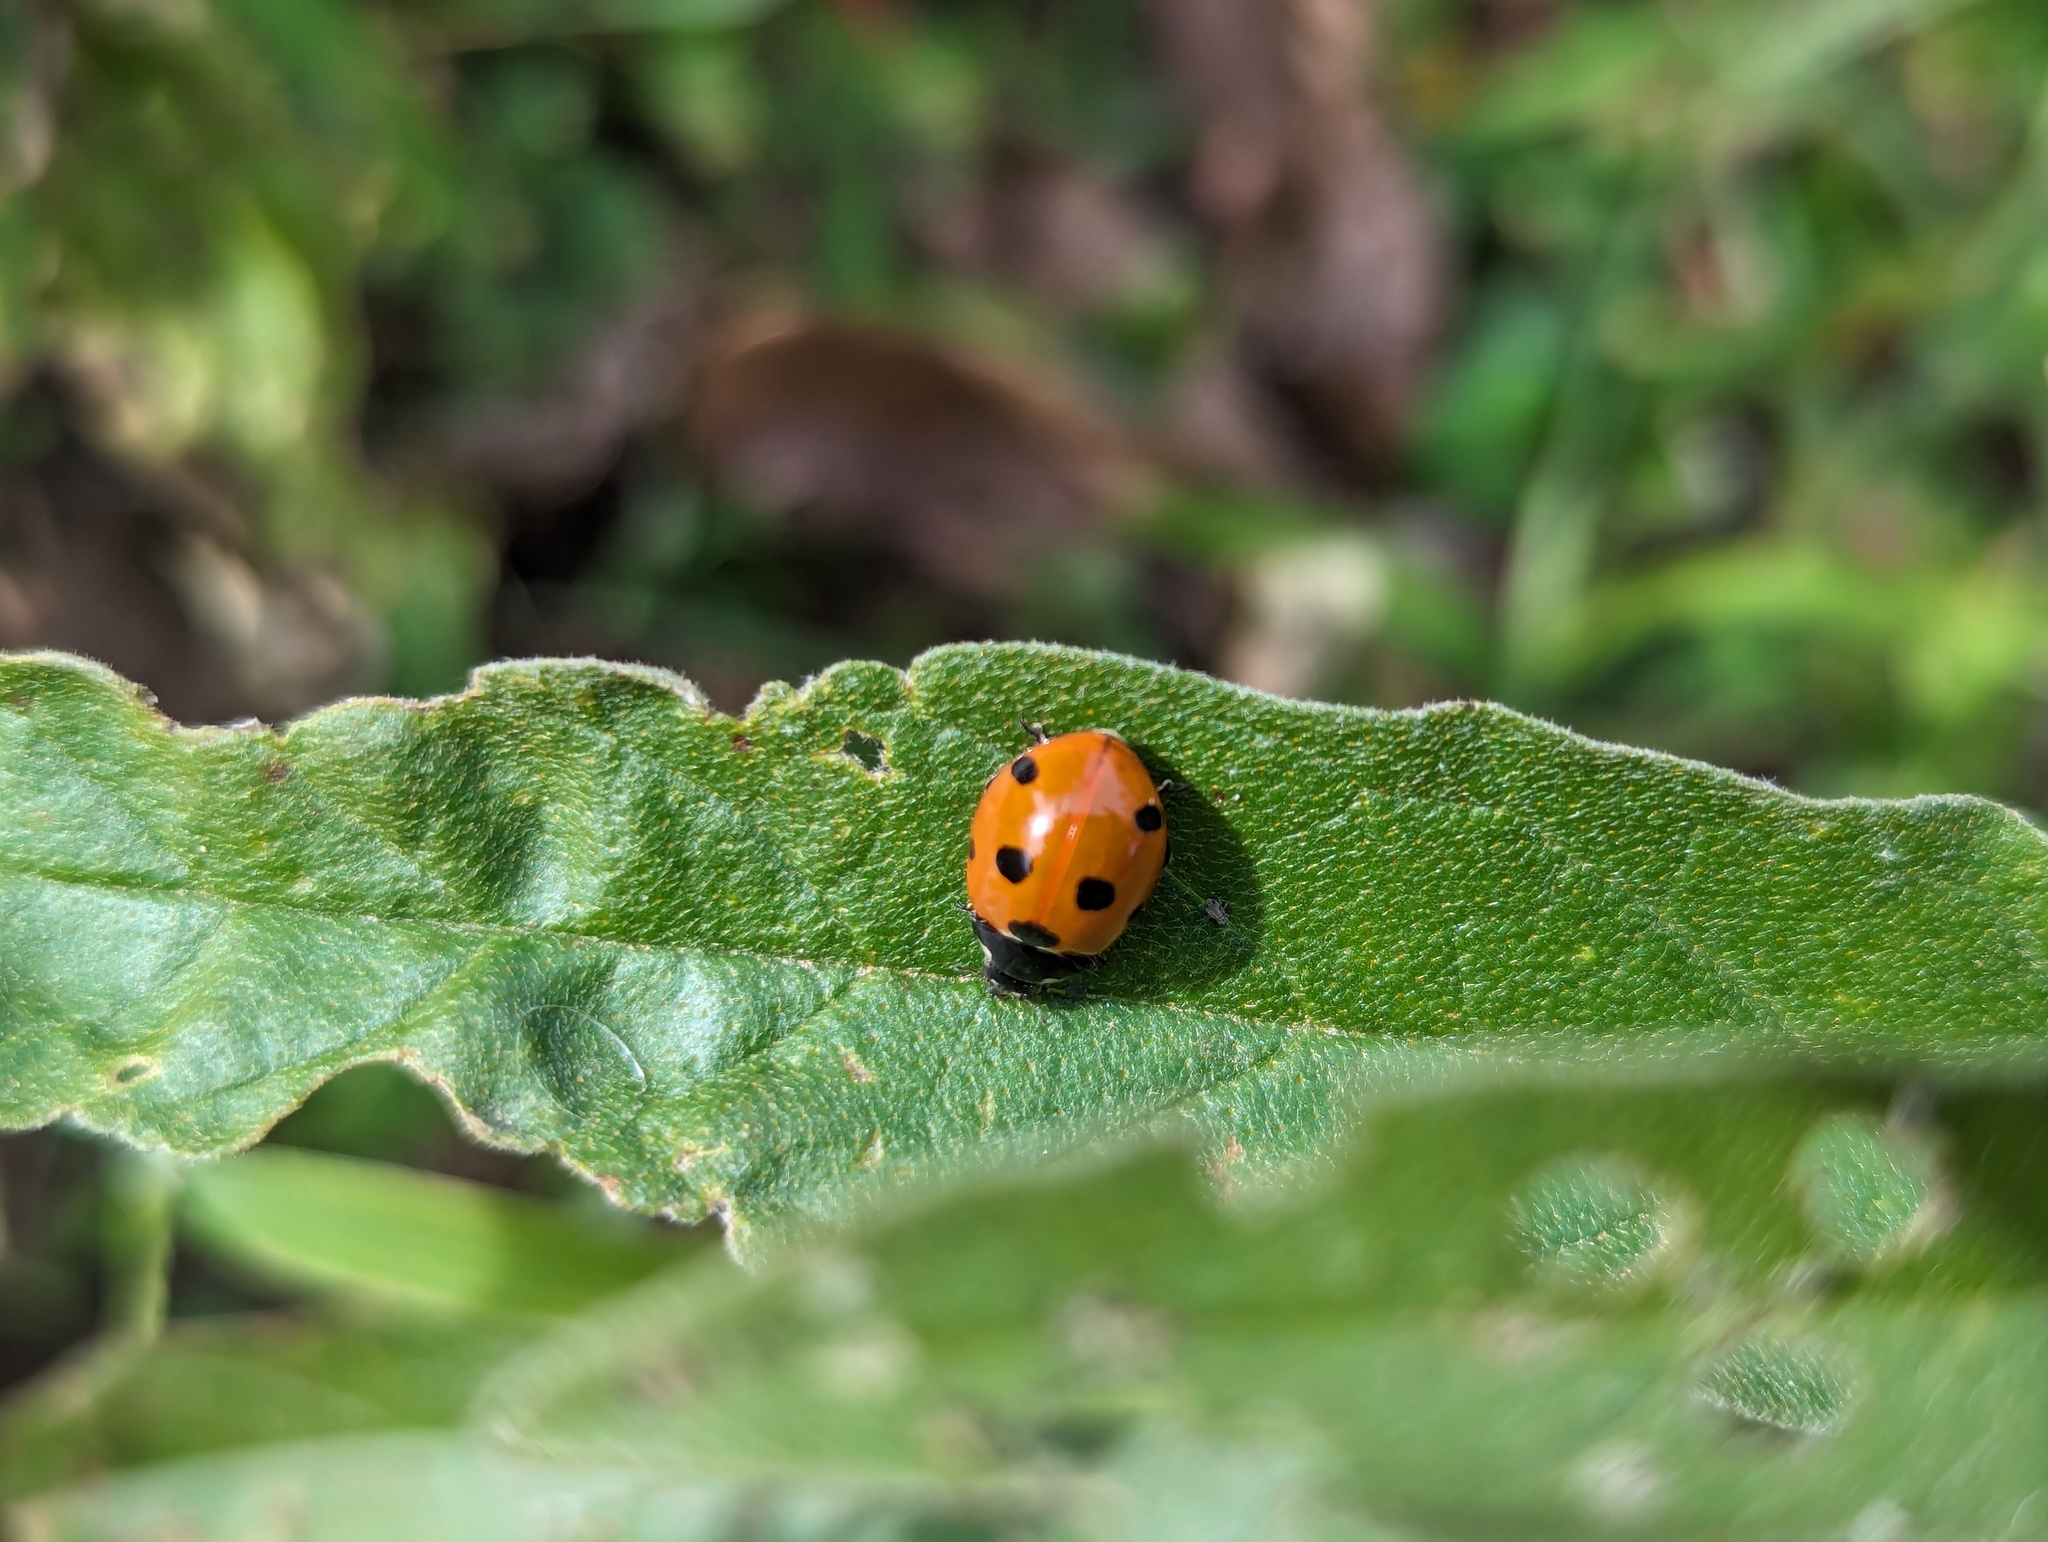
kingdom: Animalia
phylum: Arthropoda
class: Insecta
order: Coleoptera
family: Coccinellidae
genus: Coccinella
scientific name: Coccinella septempunctata
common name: Sevenspotted lady beetle
